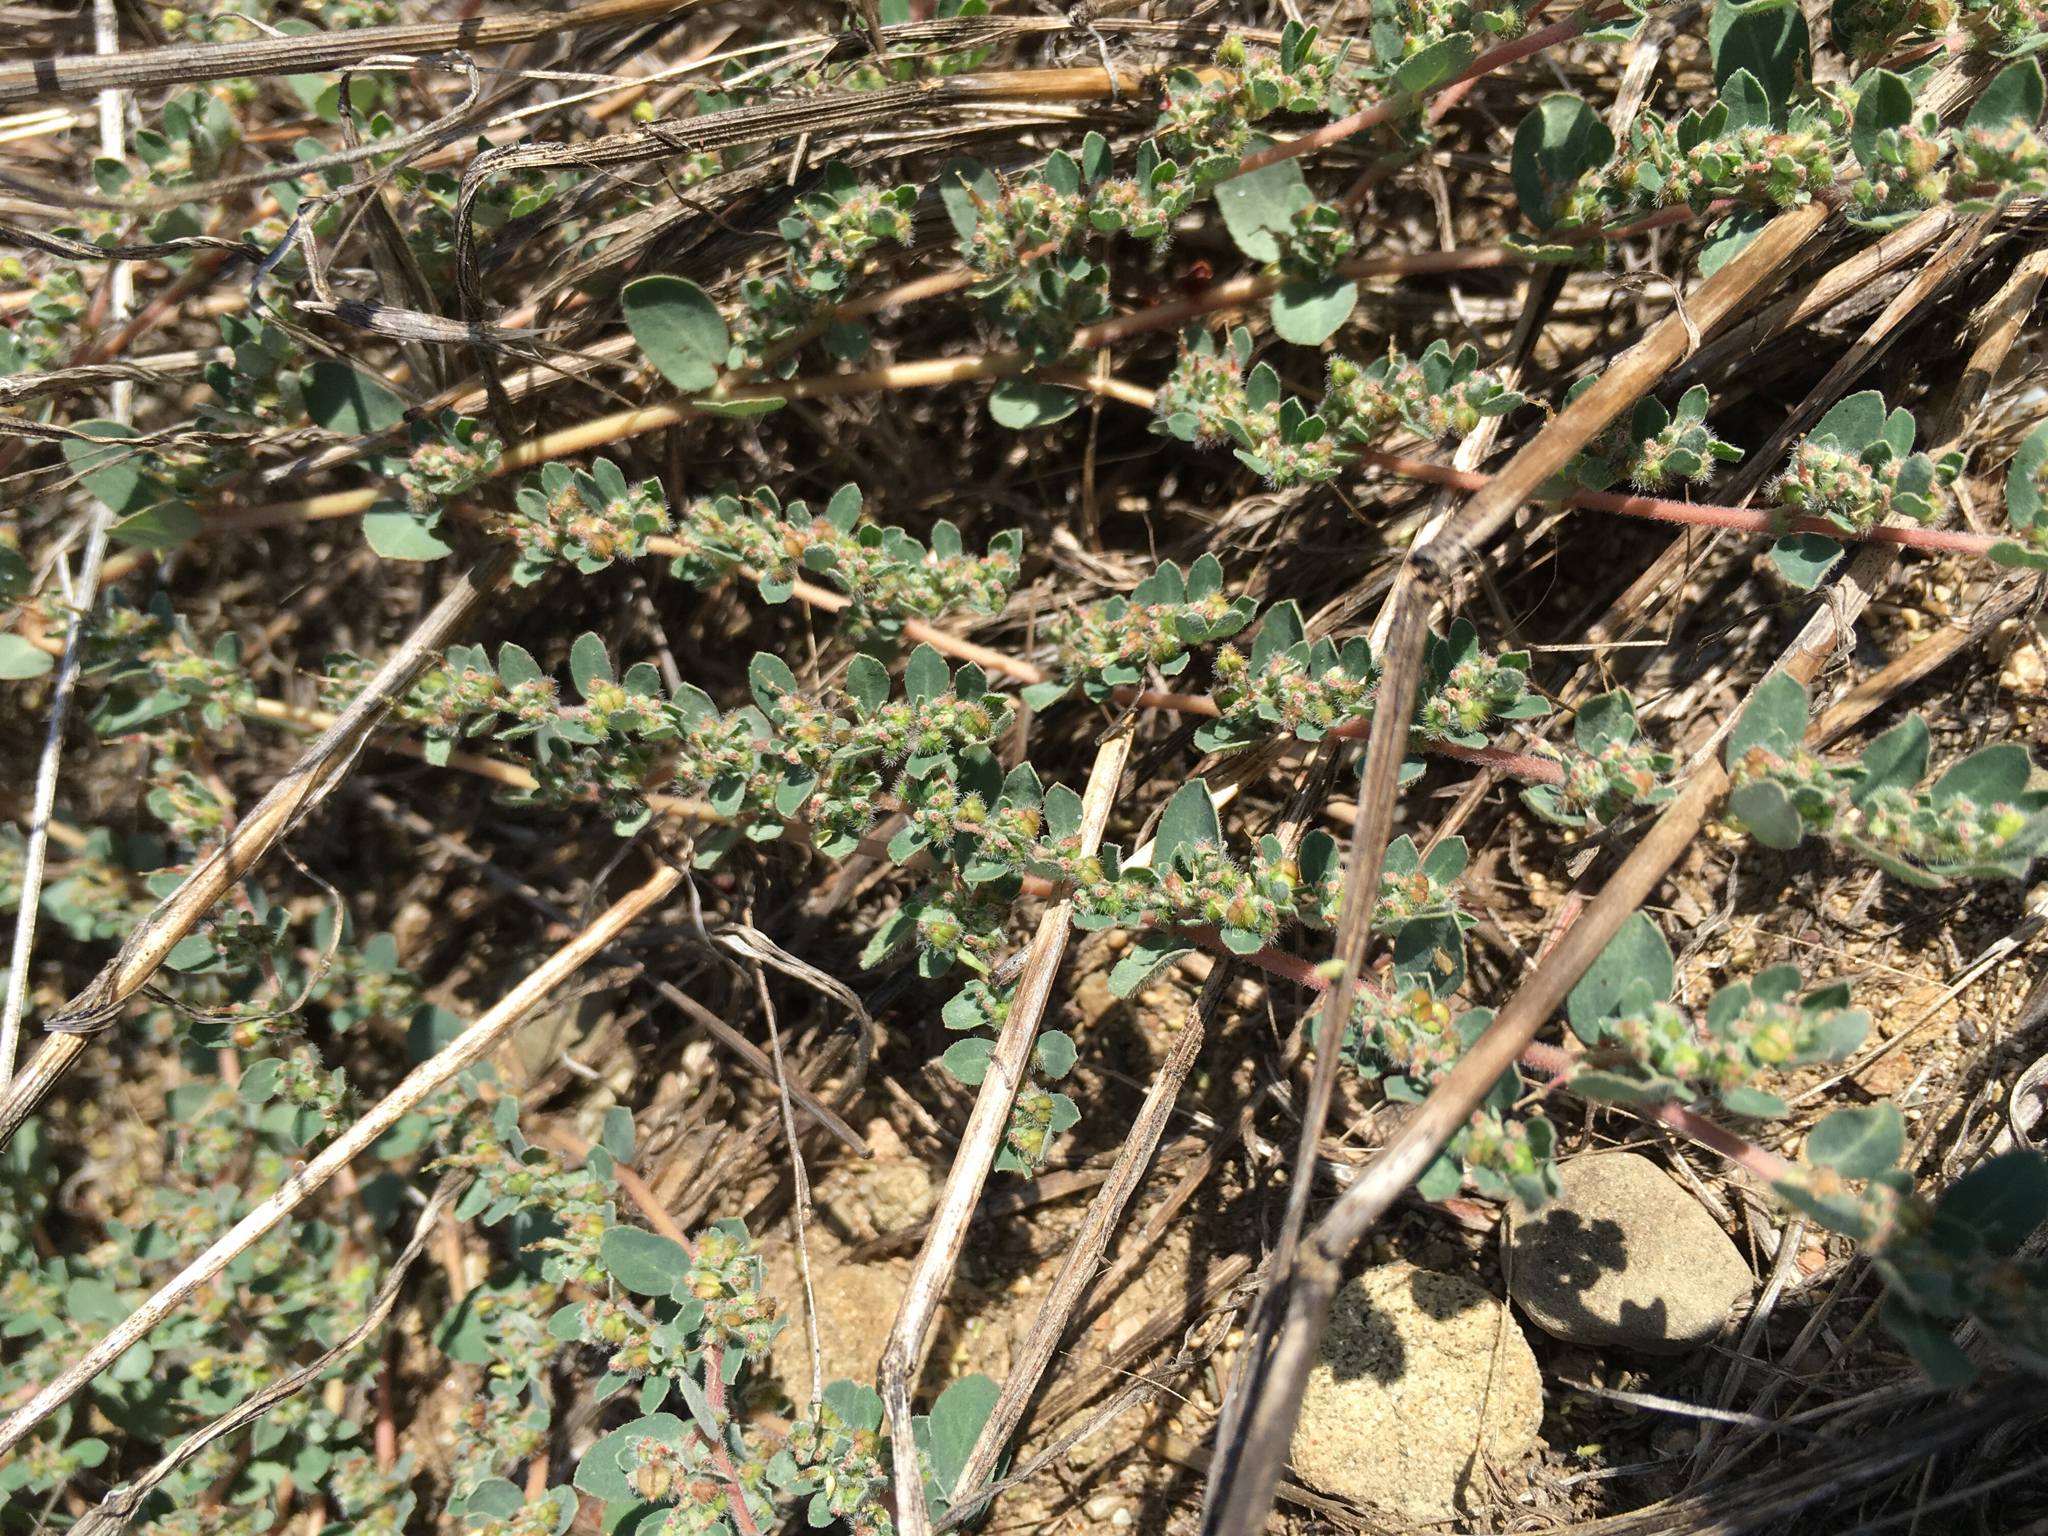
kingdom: Plantae
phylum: Tracheophyta
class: Magnoliopsida
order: Malpighiales
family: Euphorbiaceae
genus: Euphorbia
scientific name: Euphorbia prostrata
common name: Prostrate sandmat
